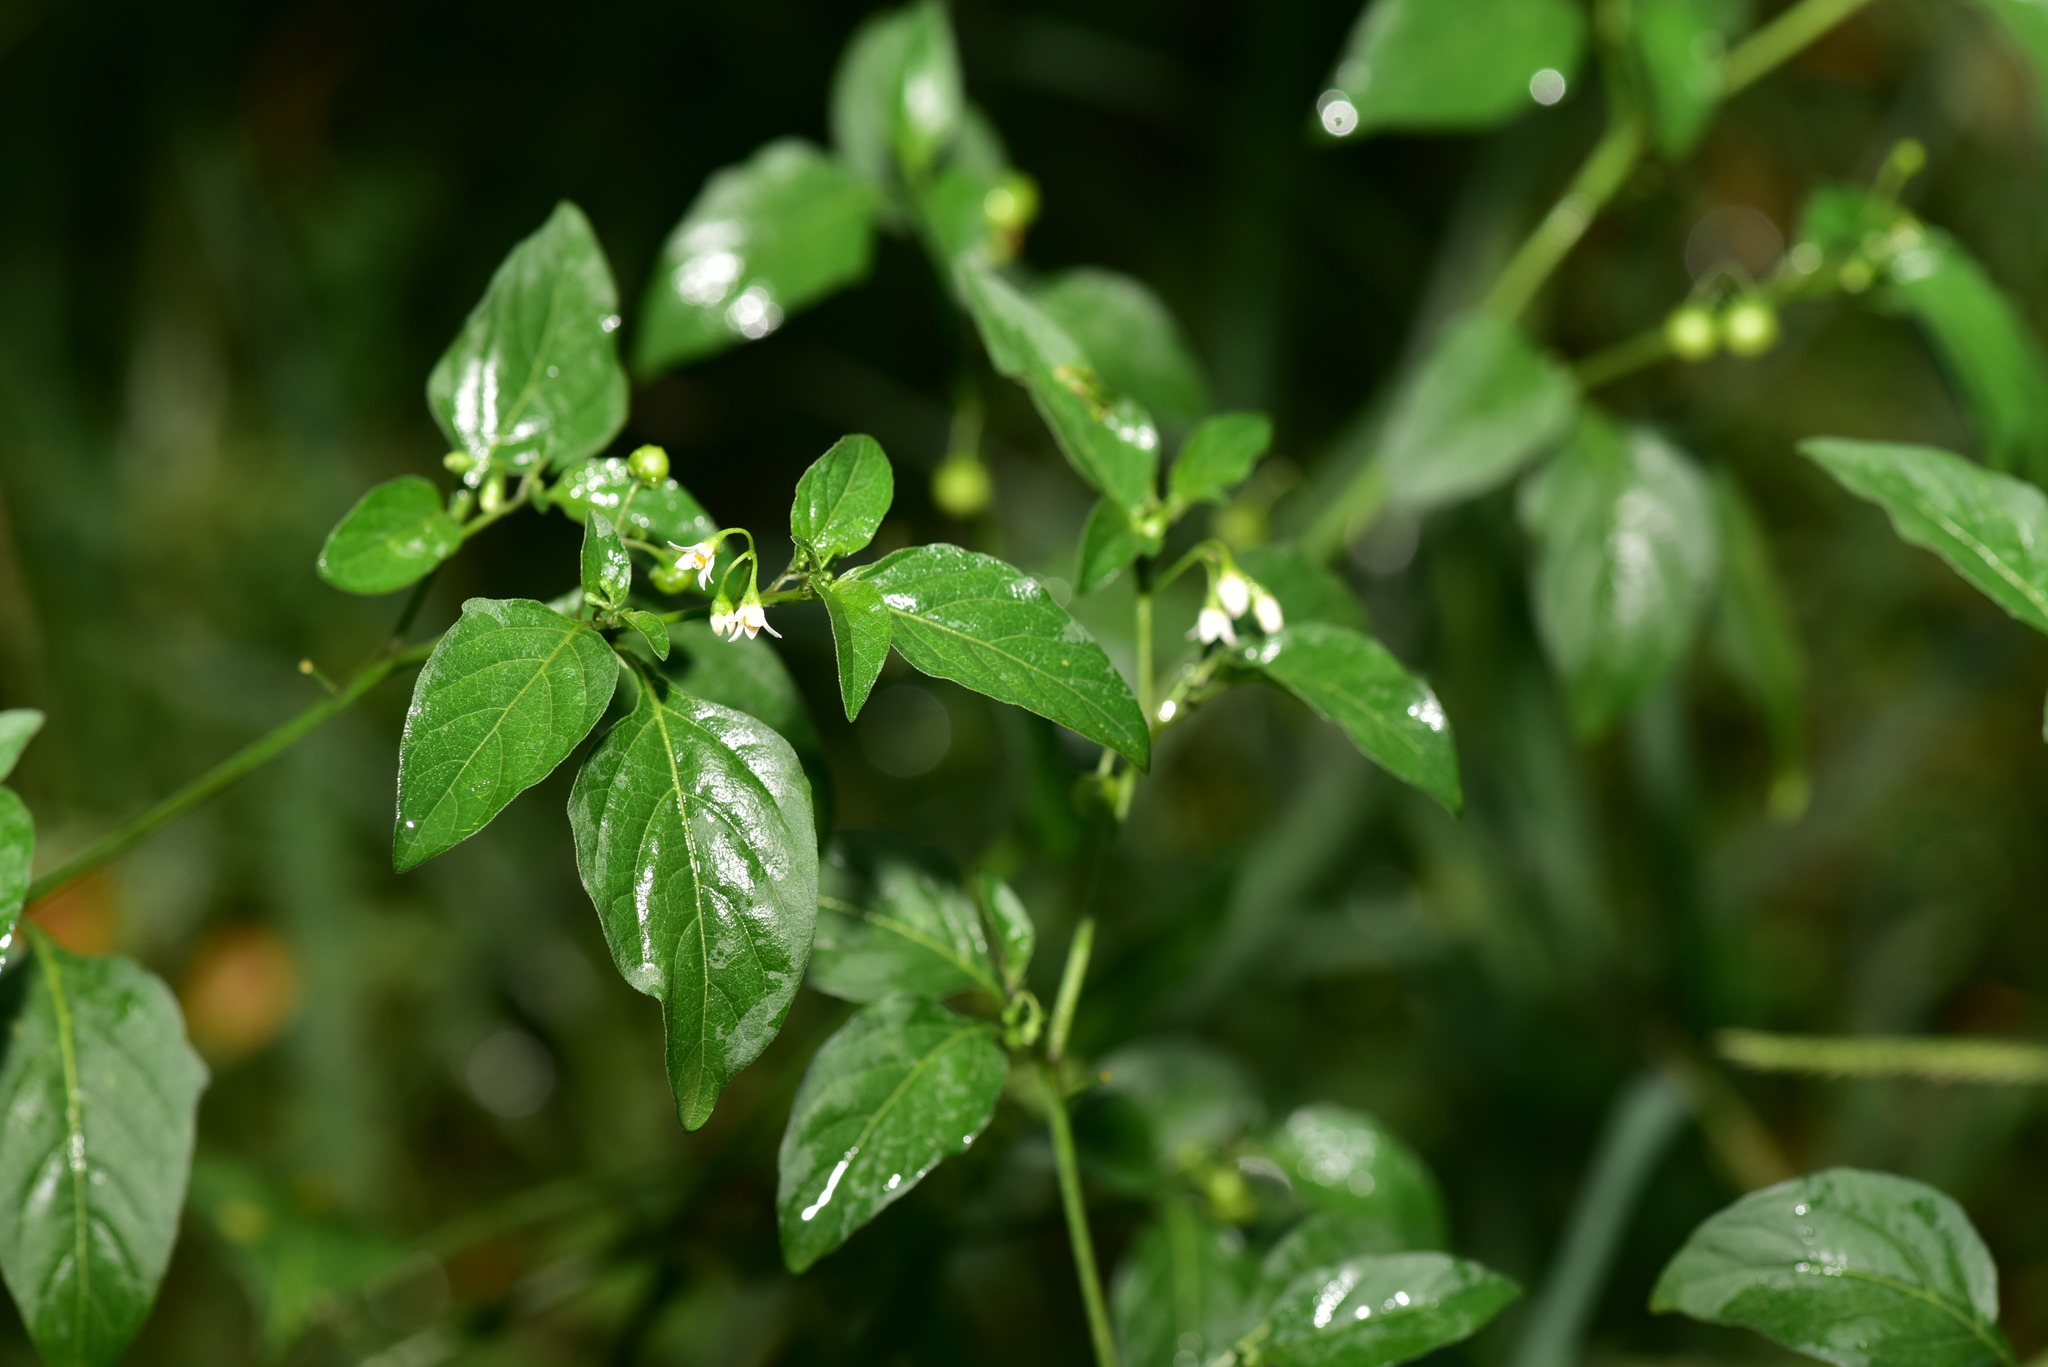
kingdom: Plantae
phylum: Tracheophyta
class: Magnoliopsida
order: Solanales
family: Solanaceae
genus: Solanum
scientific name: Solanum nigrum
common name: Black nightshade
